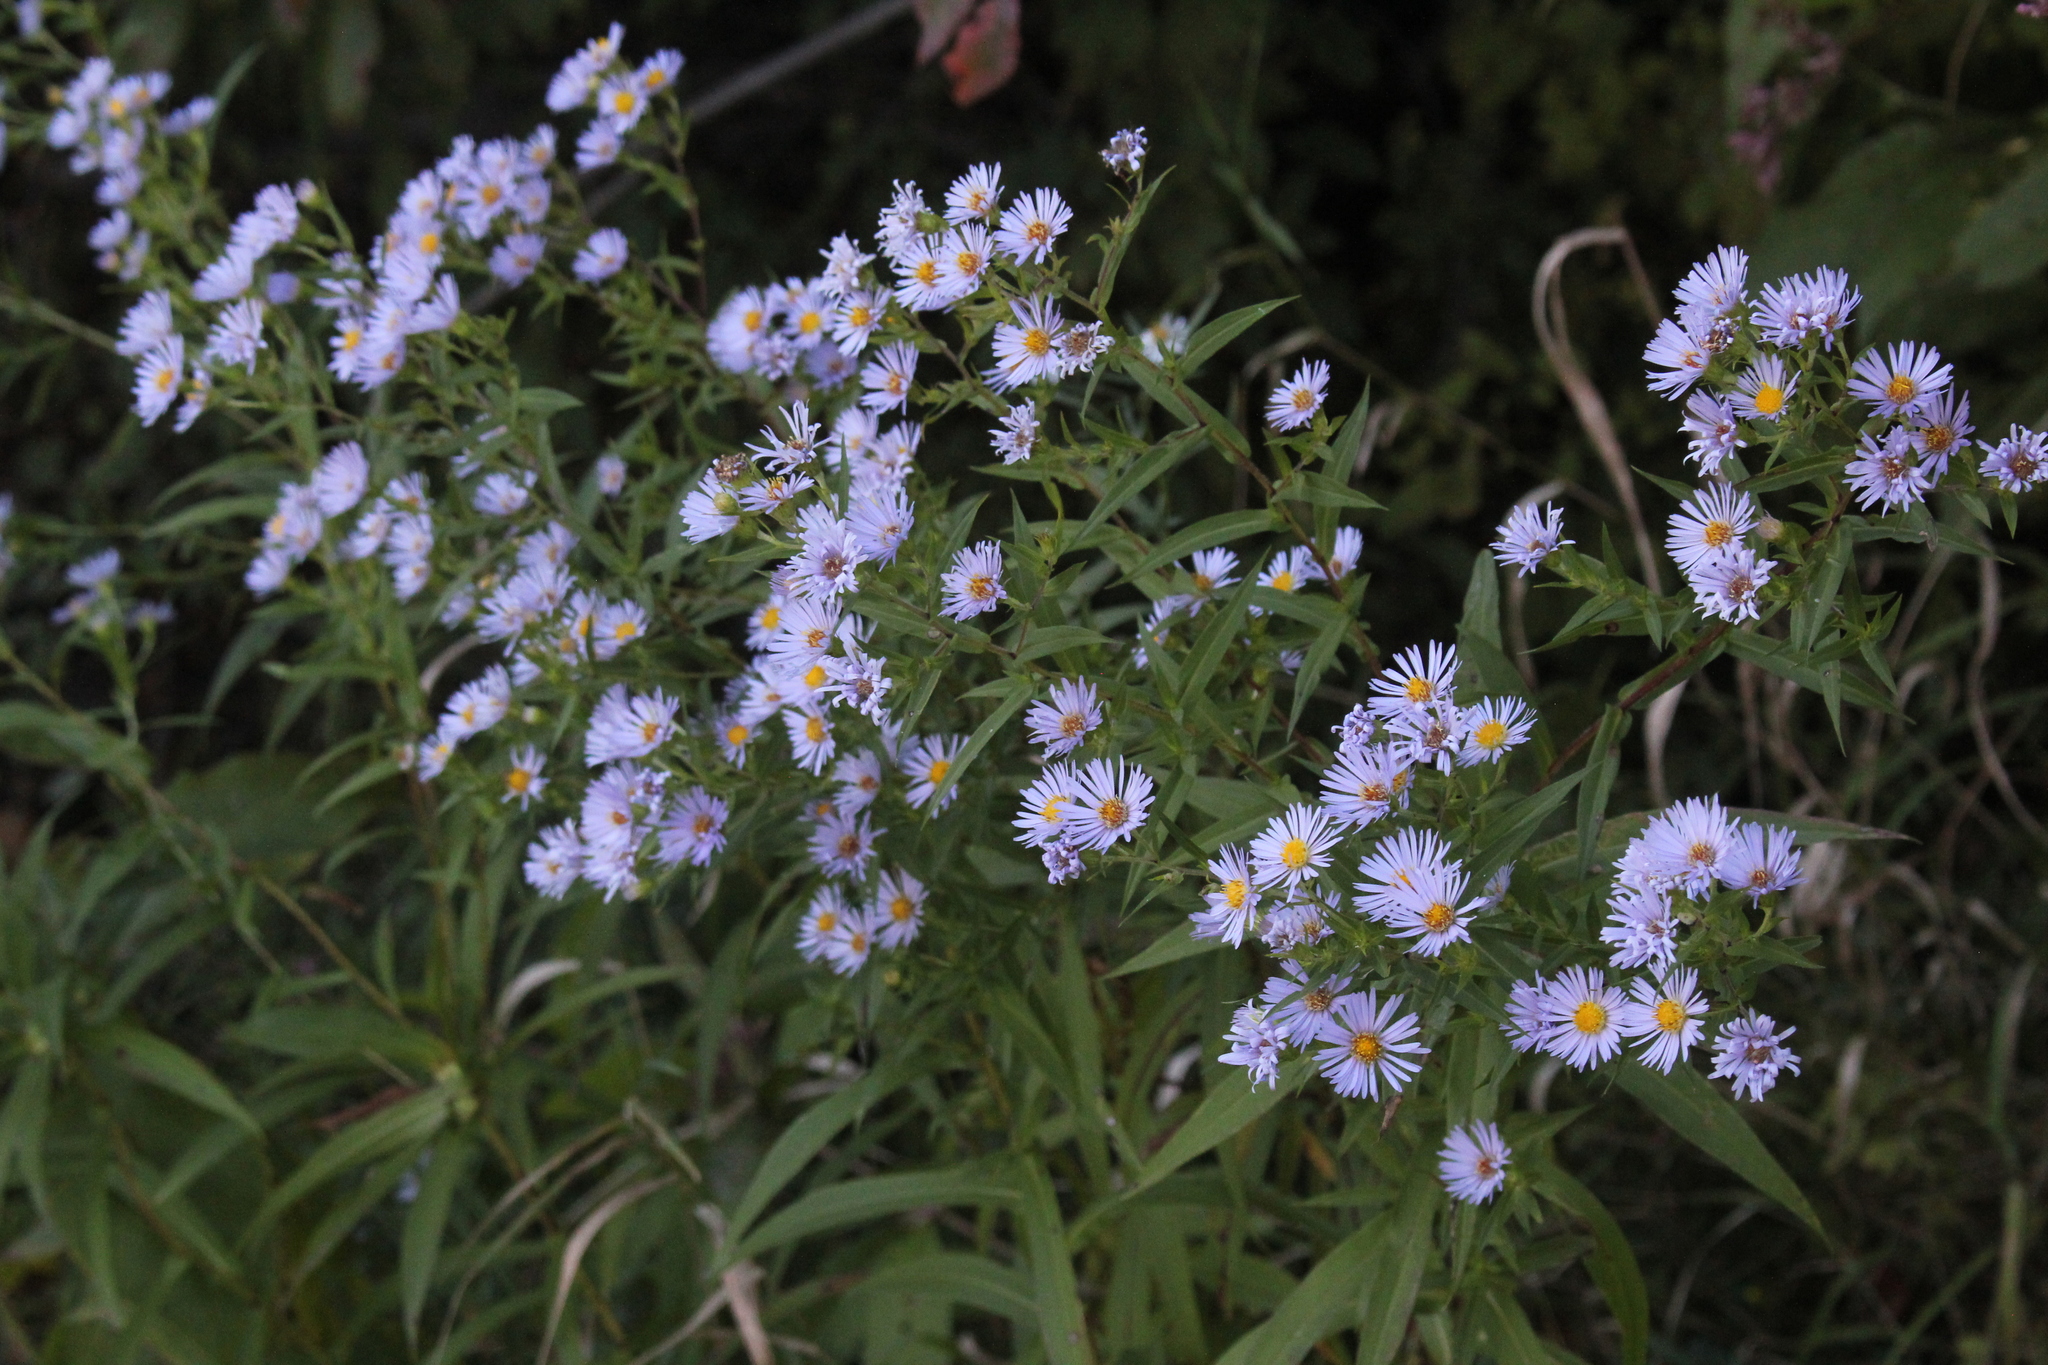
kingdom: Plantae
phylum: Tracheophyta
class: Magnoliopsida
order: Asterales
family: Asteraceae
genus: Symphyotrichum
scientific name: Symphyotrichum firmum
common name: Shining aster
